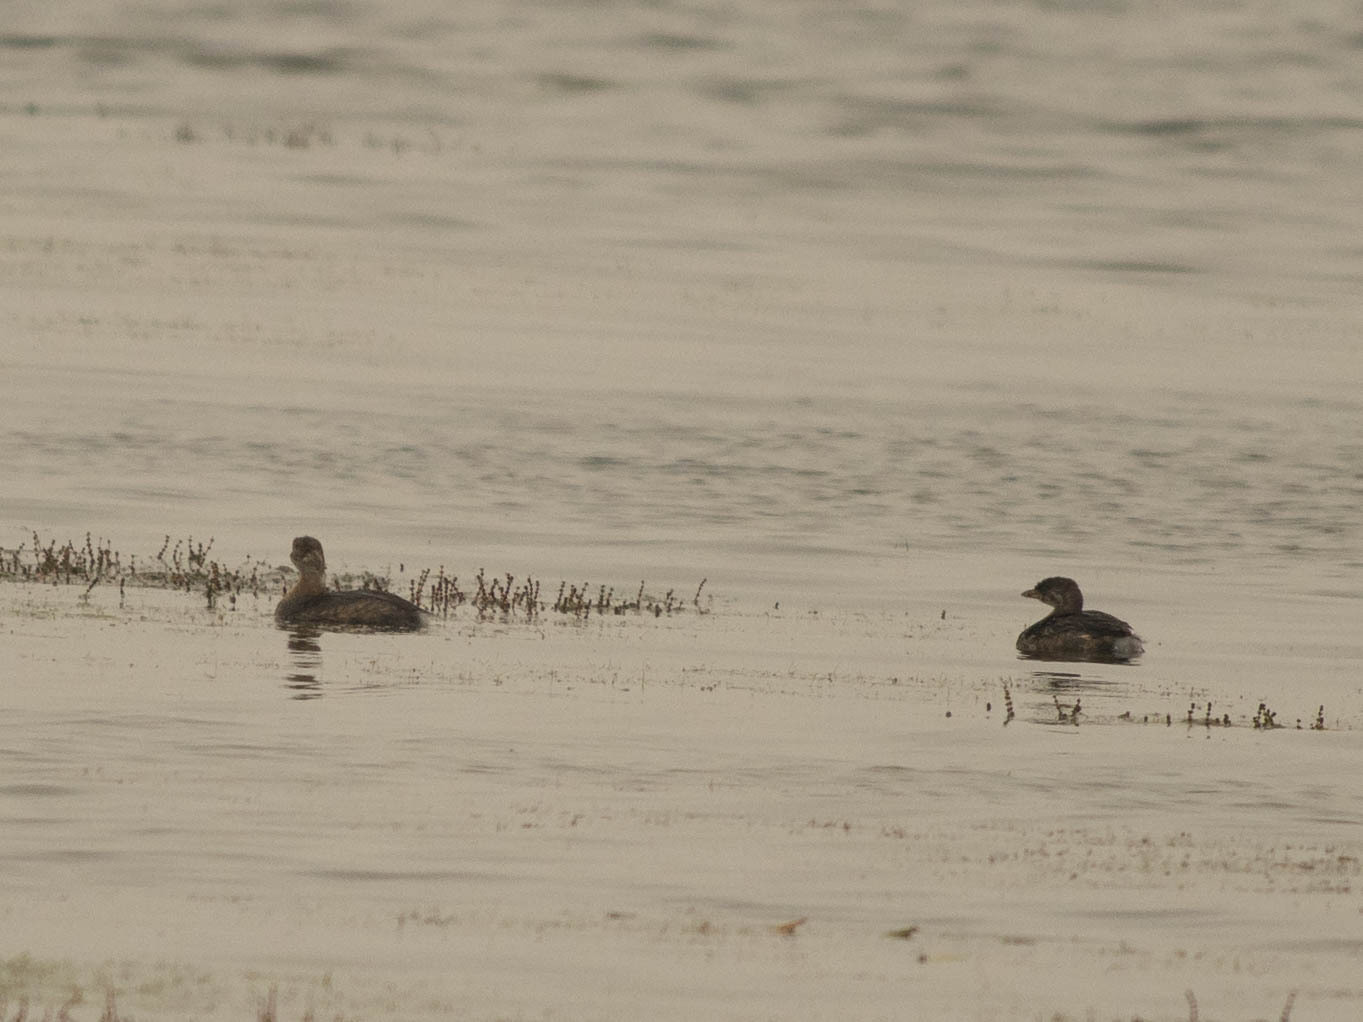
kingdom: Animalia
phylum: Chordata
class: Aves
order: Podicipediformes
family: Podicipedidae
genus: Podilymbus
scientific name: Podilymbus podiceps
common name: Pied-billed grebe
